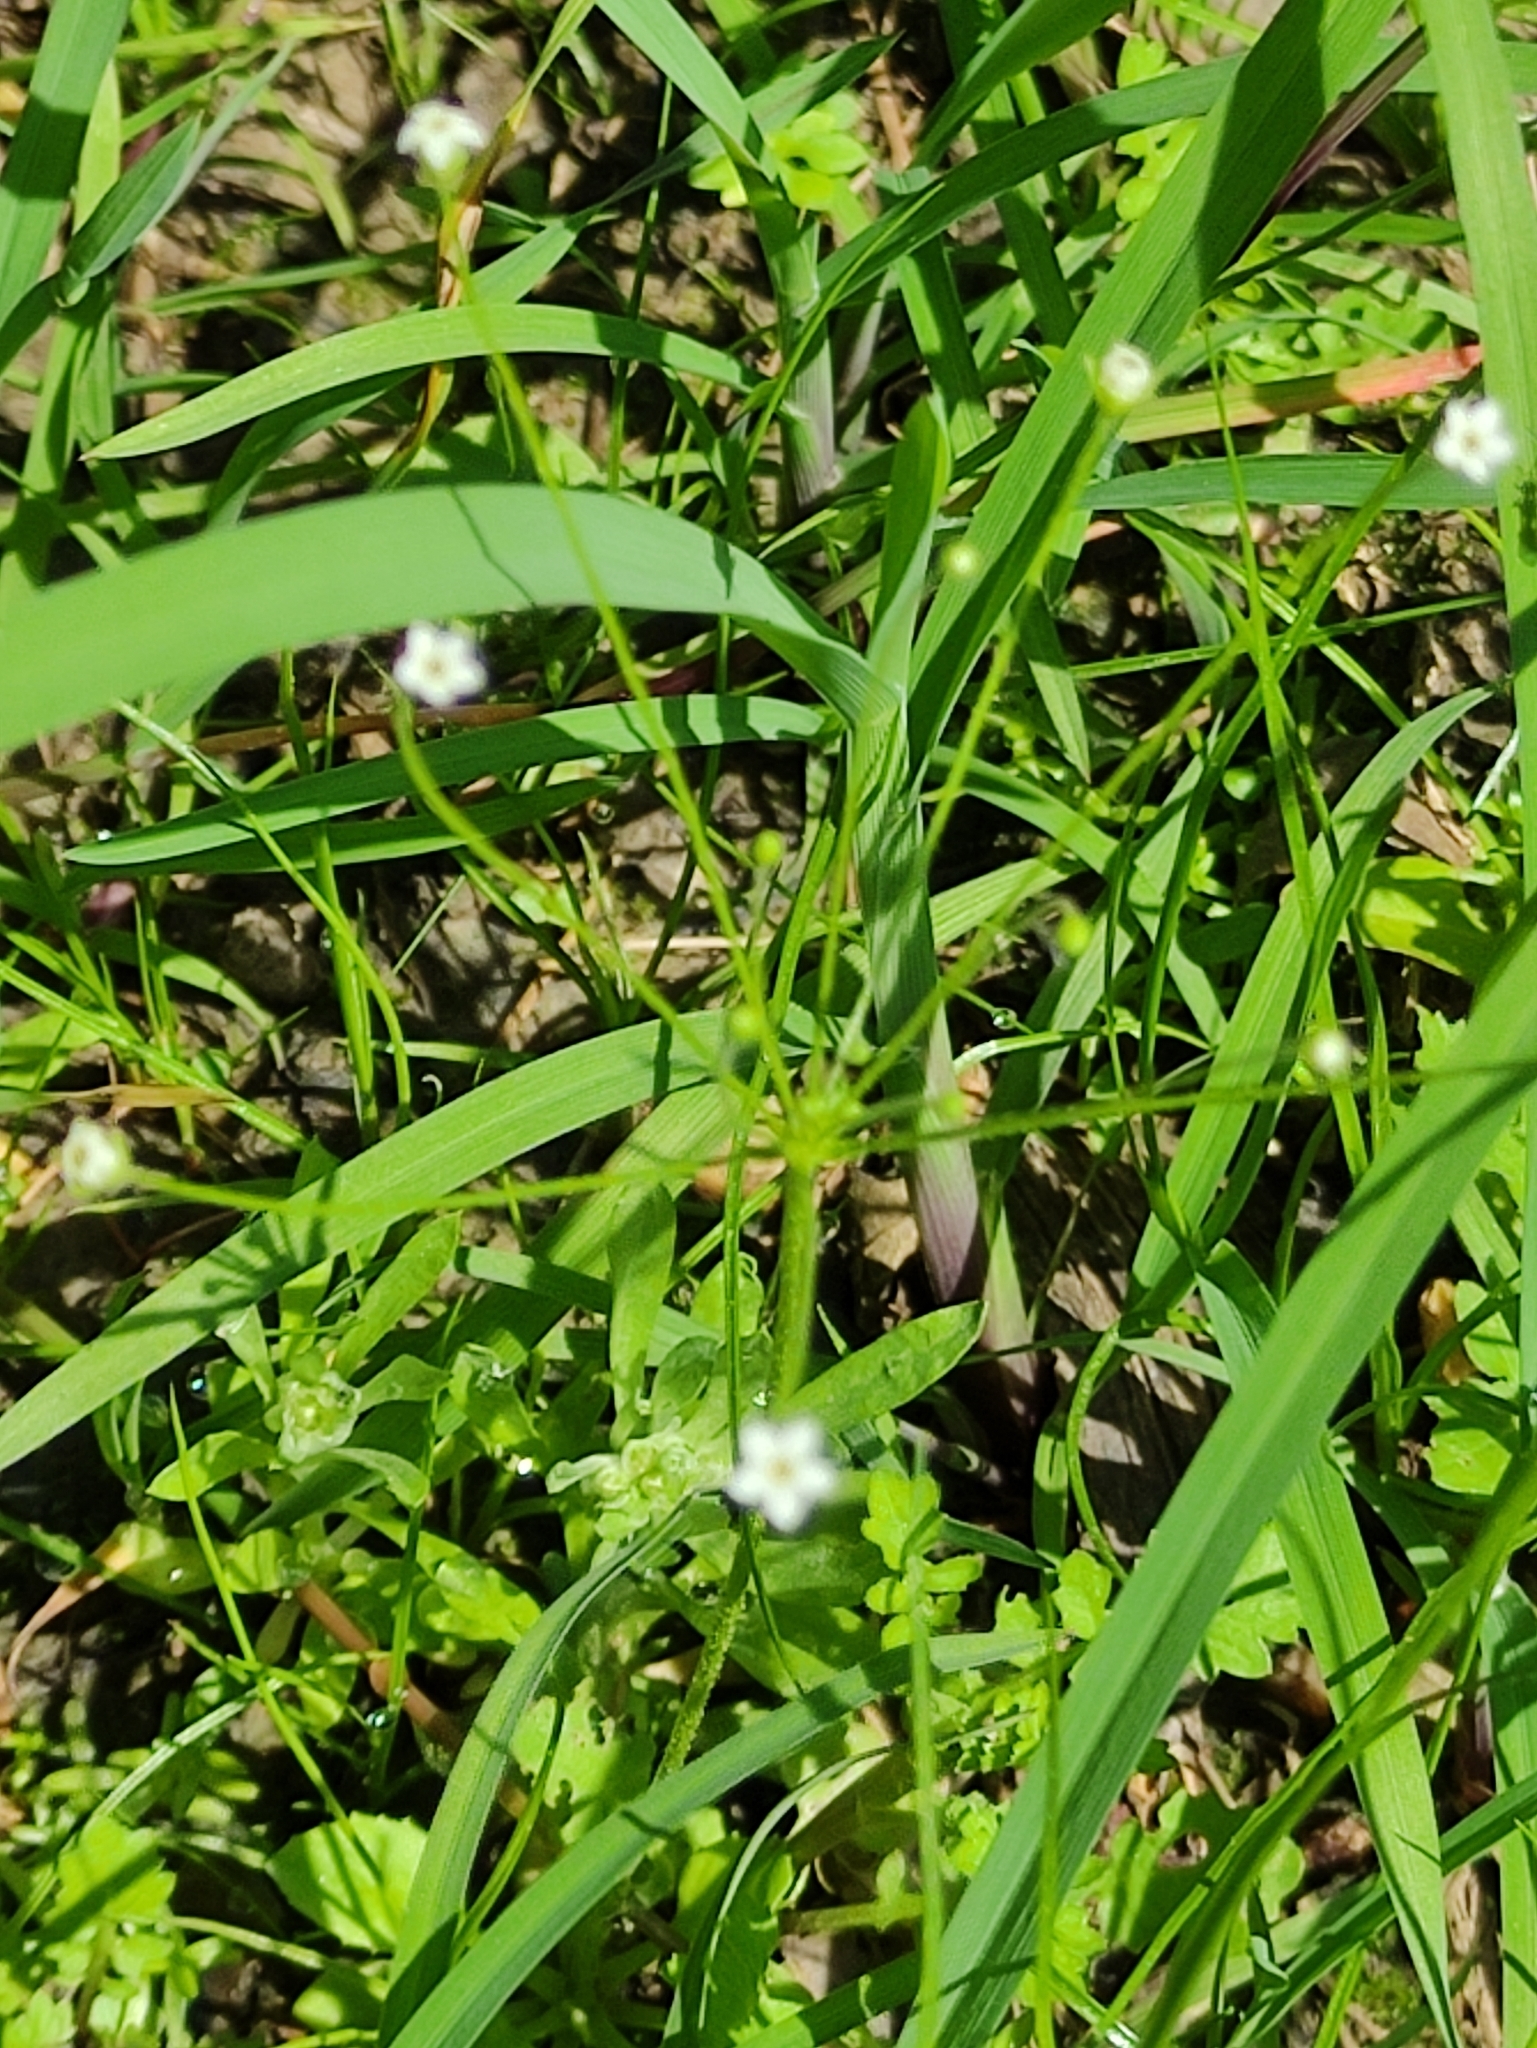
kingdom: Plantae
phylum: Tracheophyta
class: Magnoliopsida
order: Ericales
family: Primulaceae
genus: Androsace
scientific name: Androsace filiformis
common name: Filiform rock jasmine
